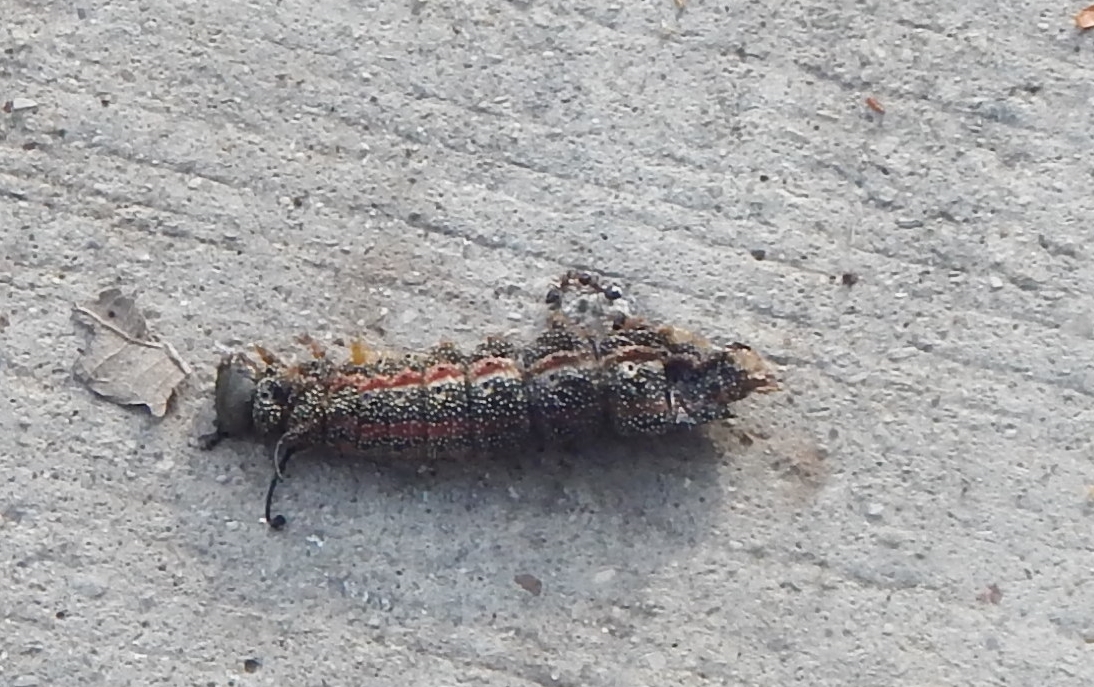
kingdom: Animalia
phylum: Arthropoda
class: Insecta
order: Lepidoptera
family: Saturniidae
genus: Anisota
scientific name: Anisota virginiensis
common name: Pink striped oakworm moth
